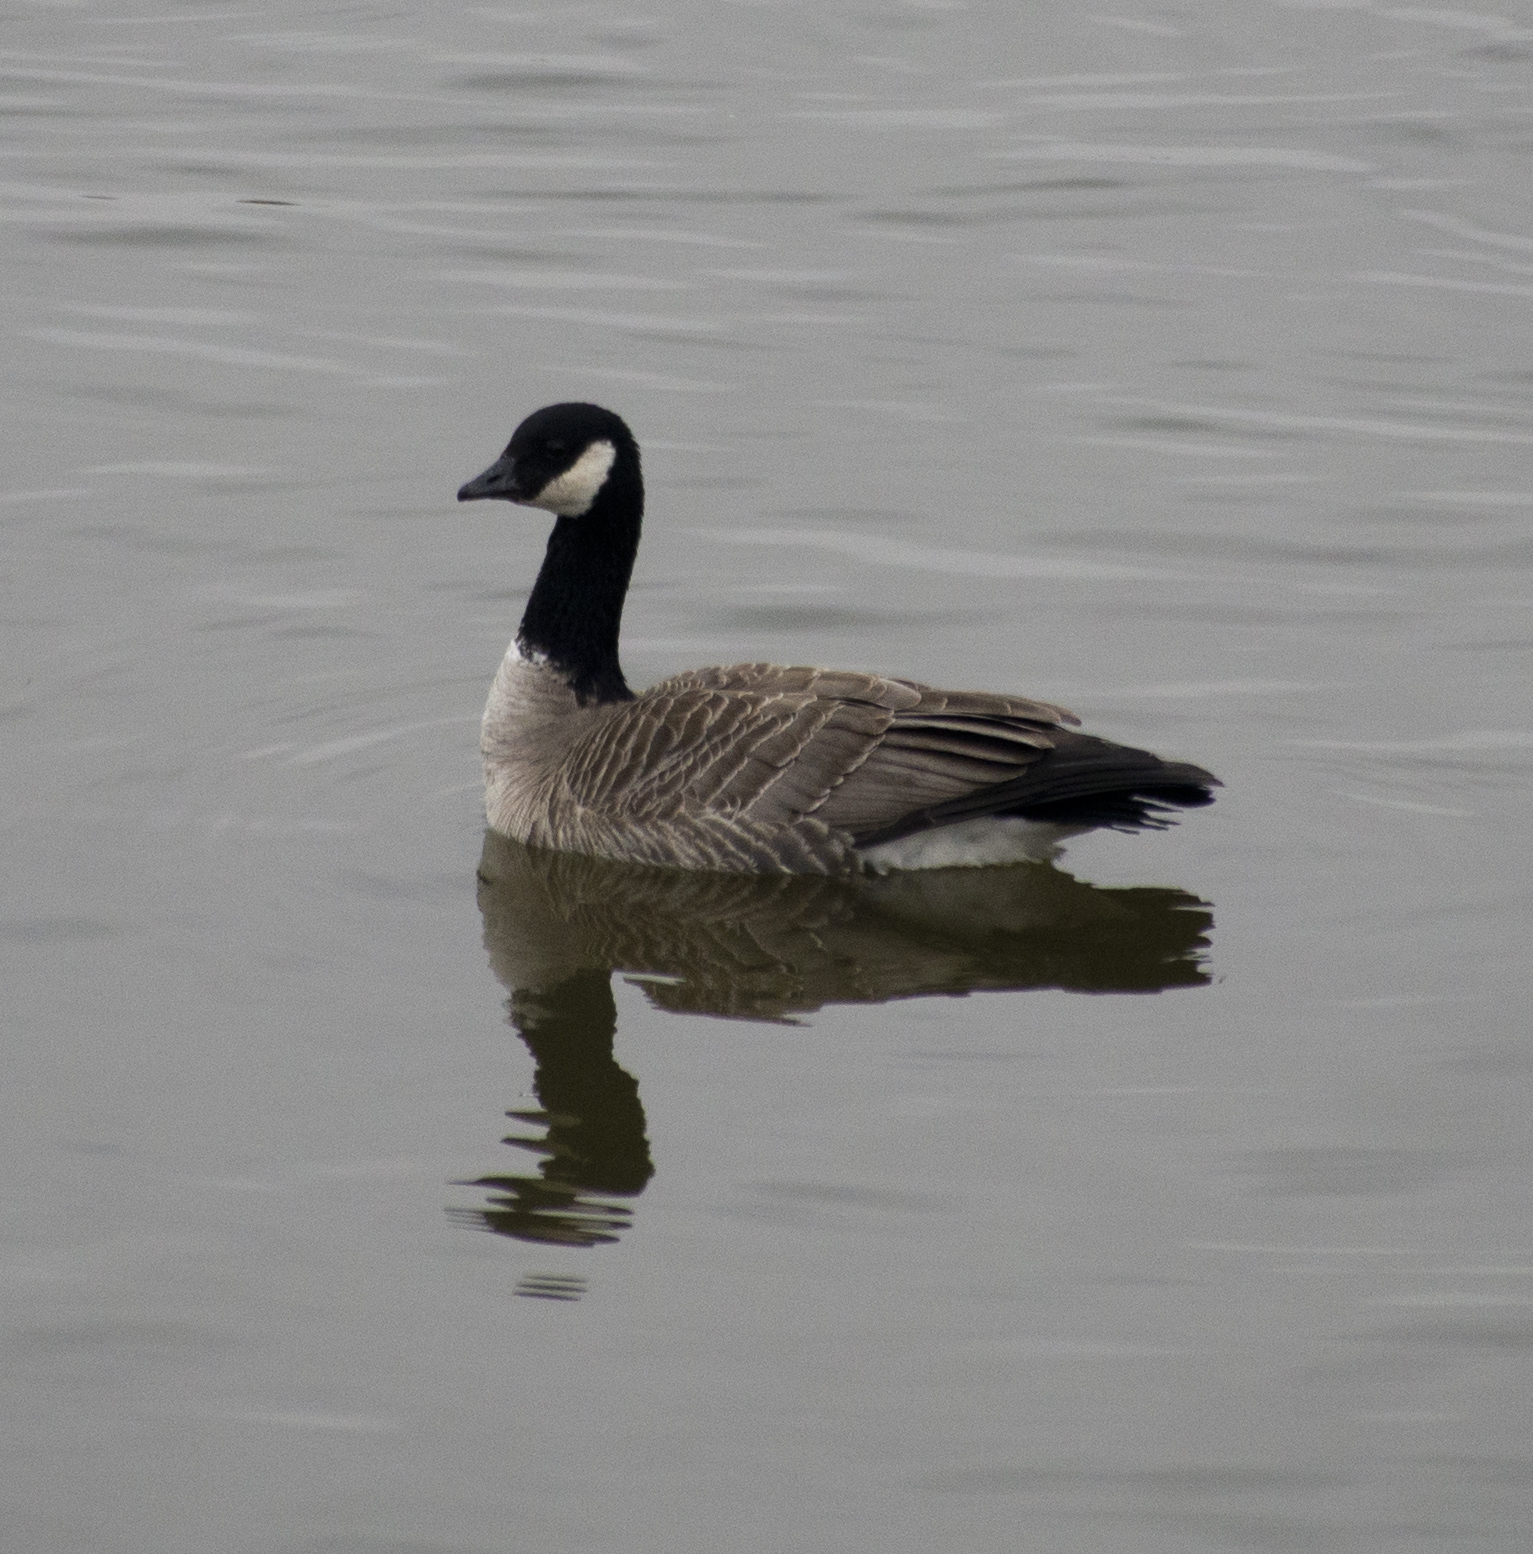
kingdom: Animalia
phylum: Chordata
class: Aves
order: Anseriformes
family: Anatidae
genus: Branta
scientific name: Branta hutchinsii
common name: Cackling goose
